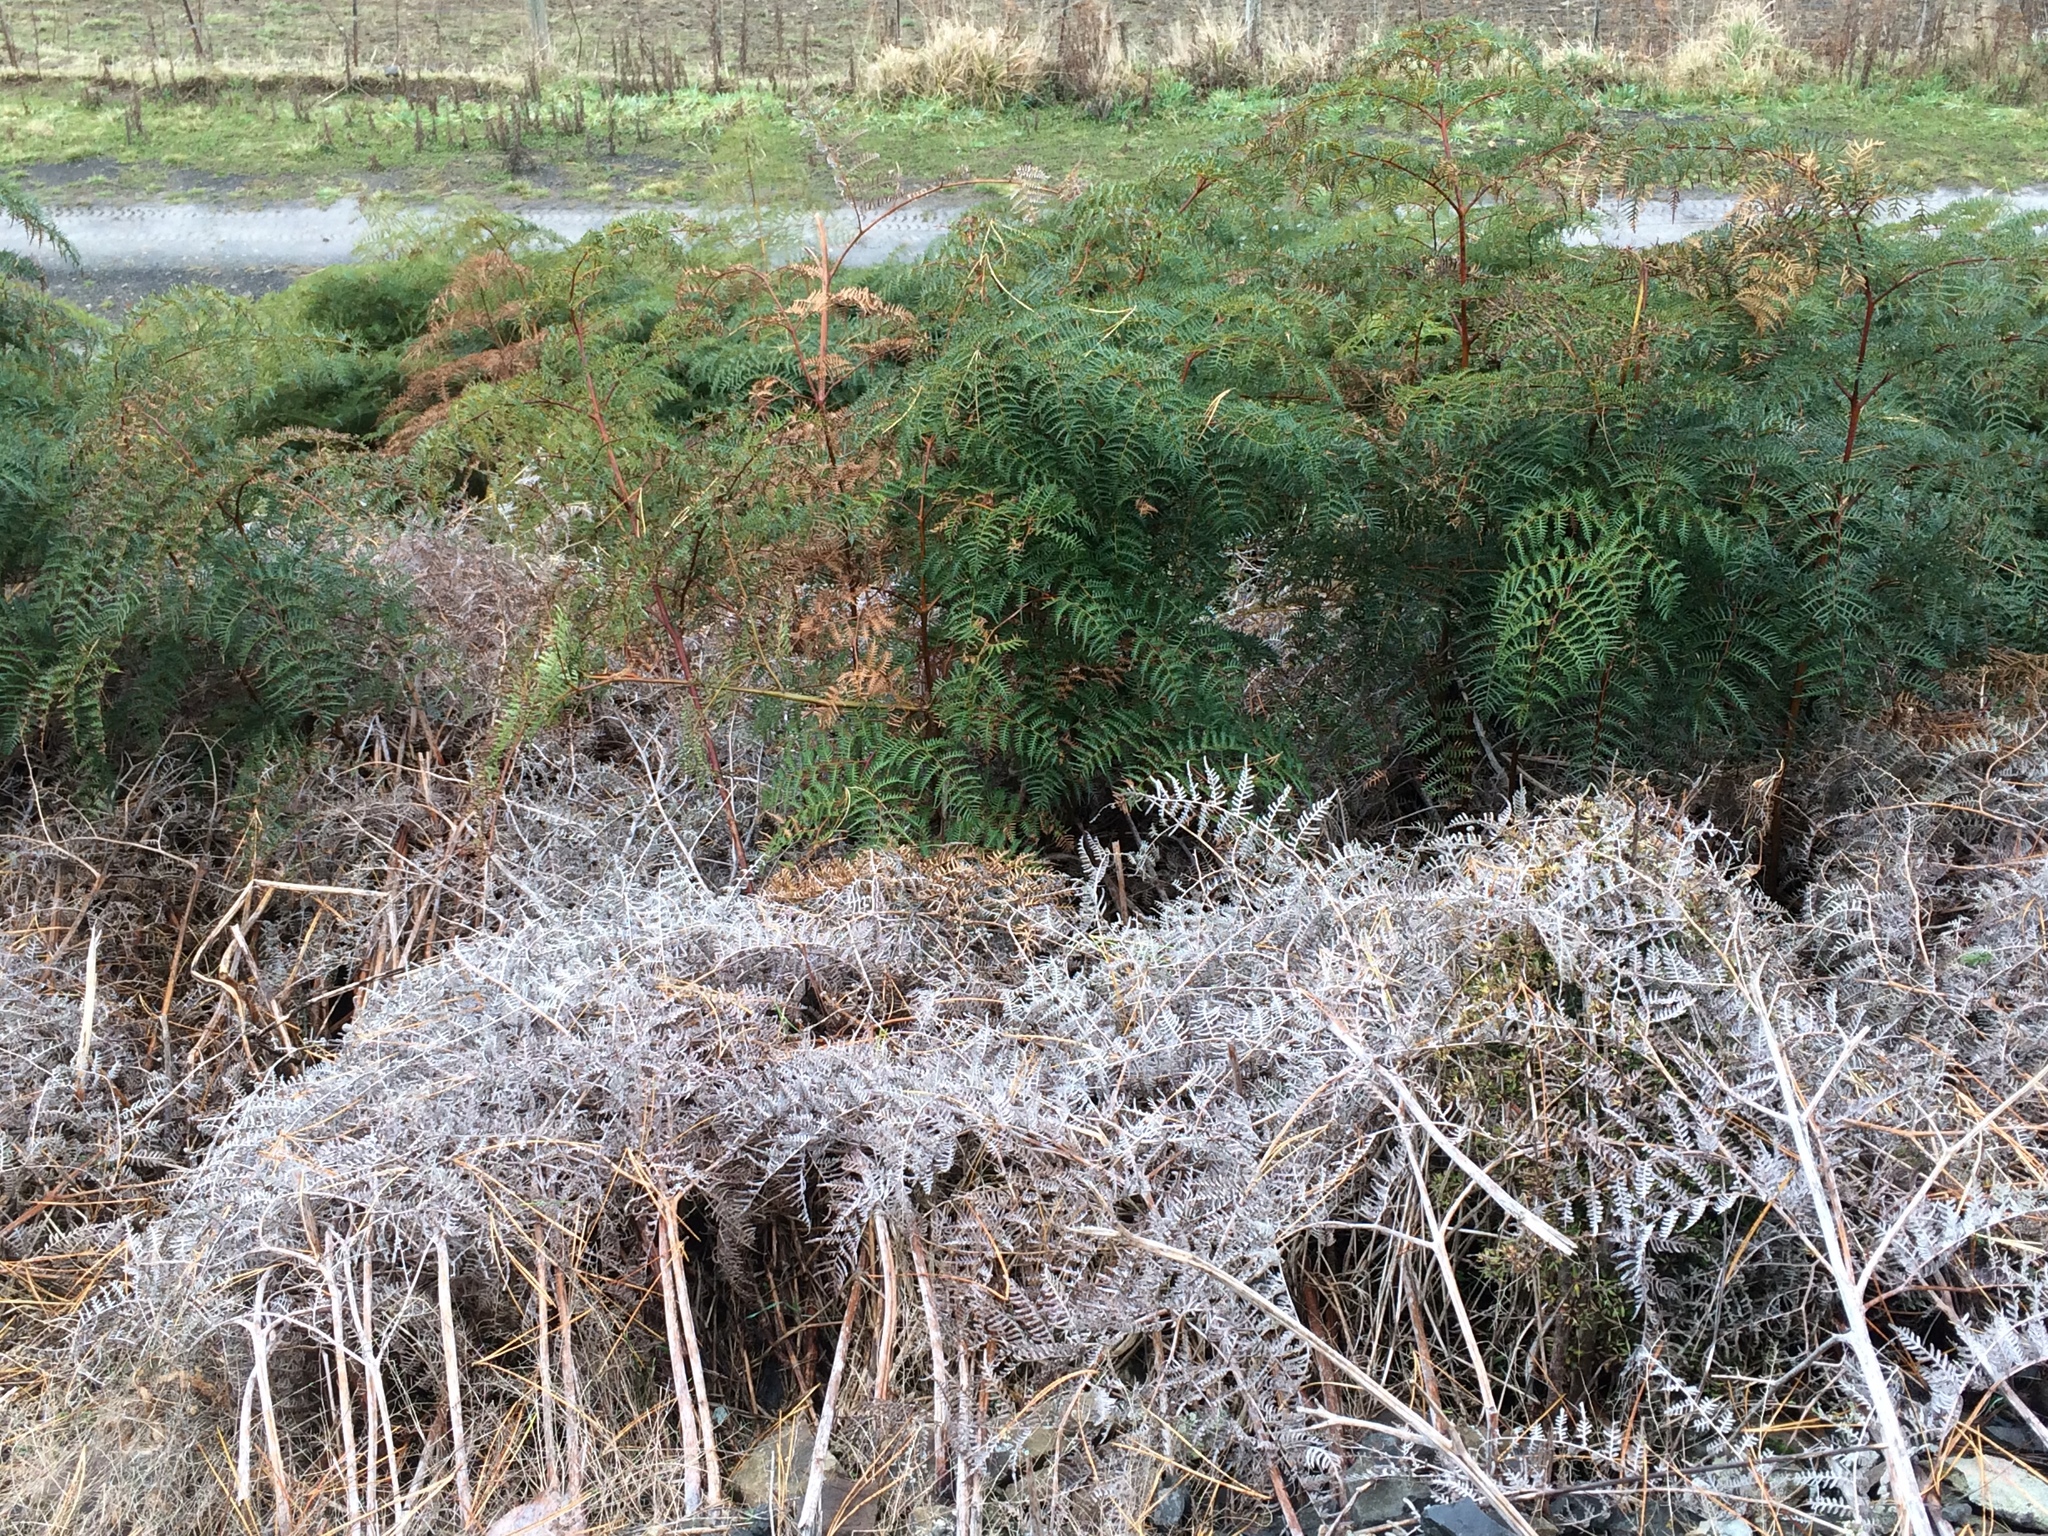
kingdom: Plantae
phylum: Tracheophyta
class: Polypodiopsida
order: Polypodiales
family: Dennstaedtiaceae
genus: Pteridium
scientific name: Pteridium esculentum
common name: Bracken fern
